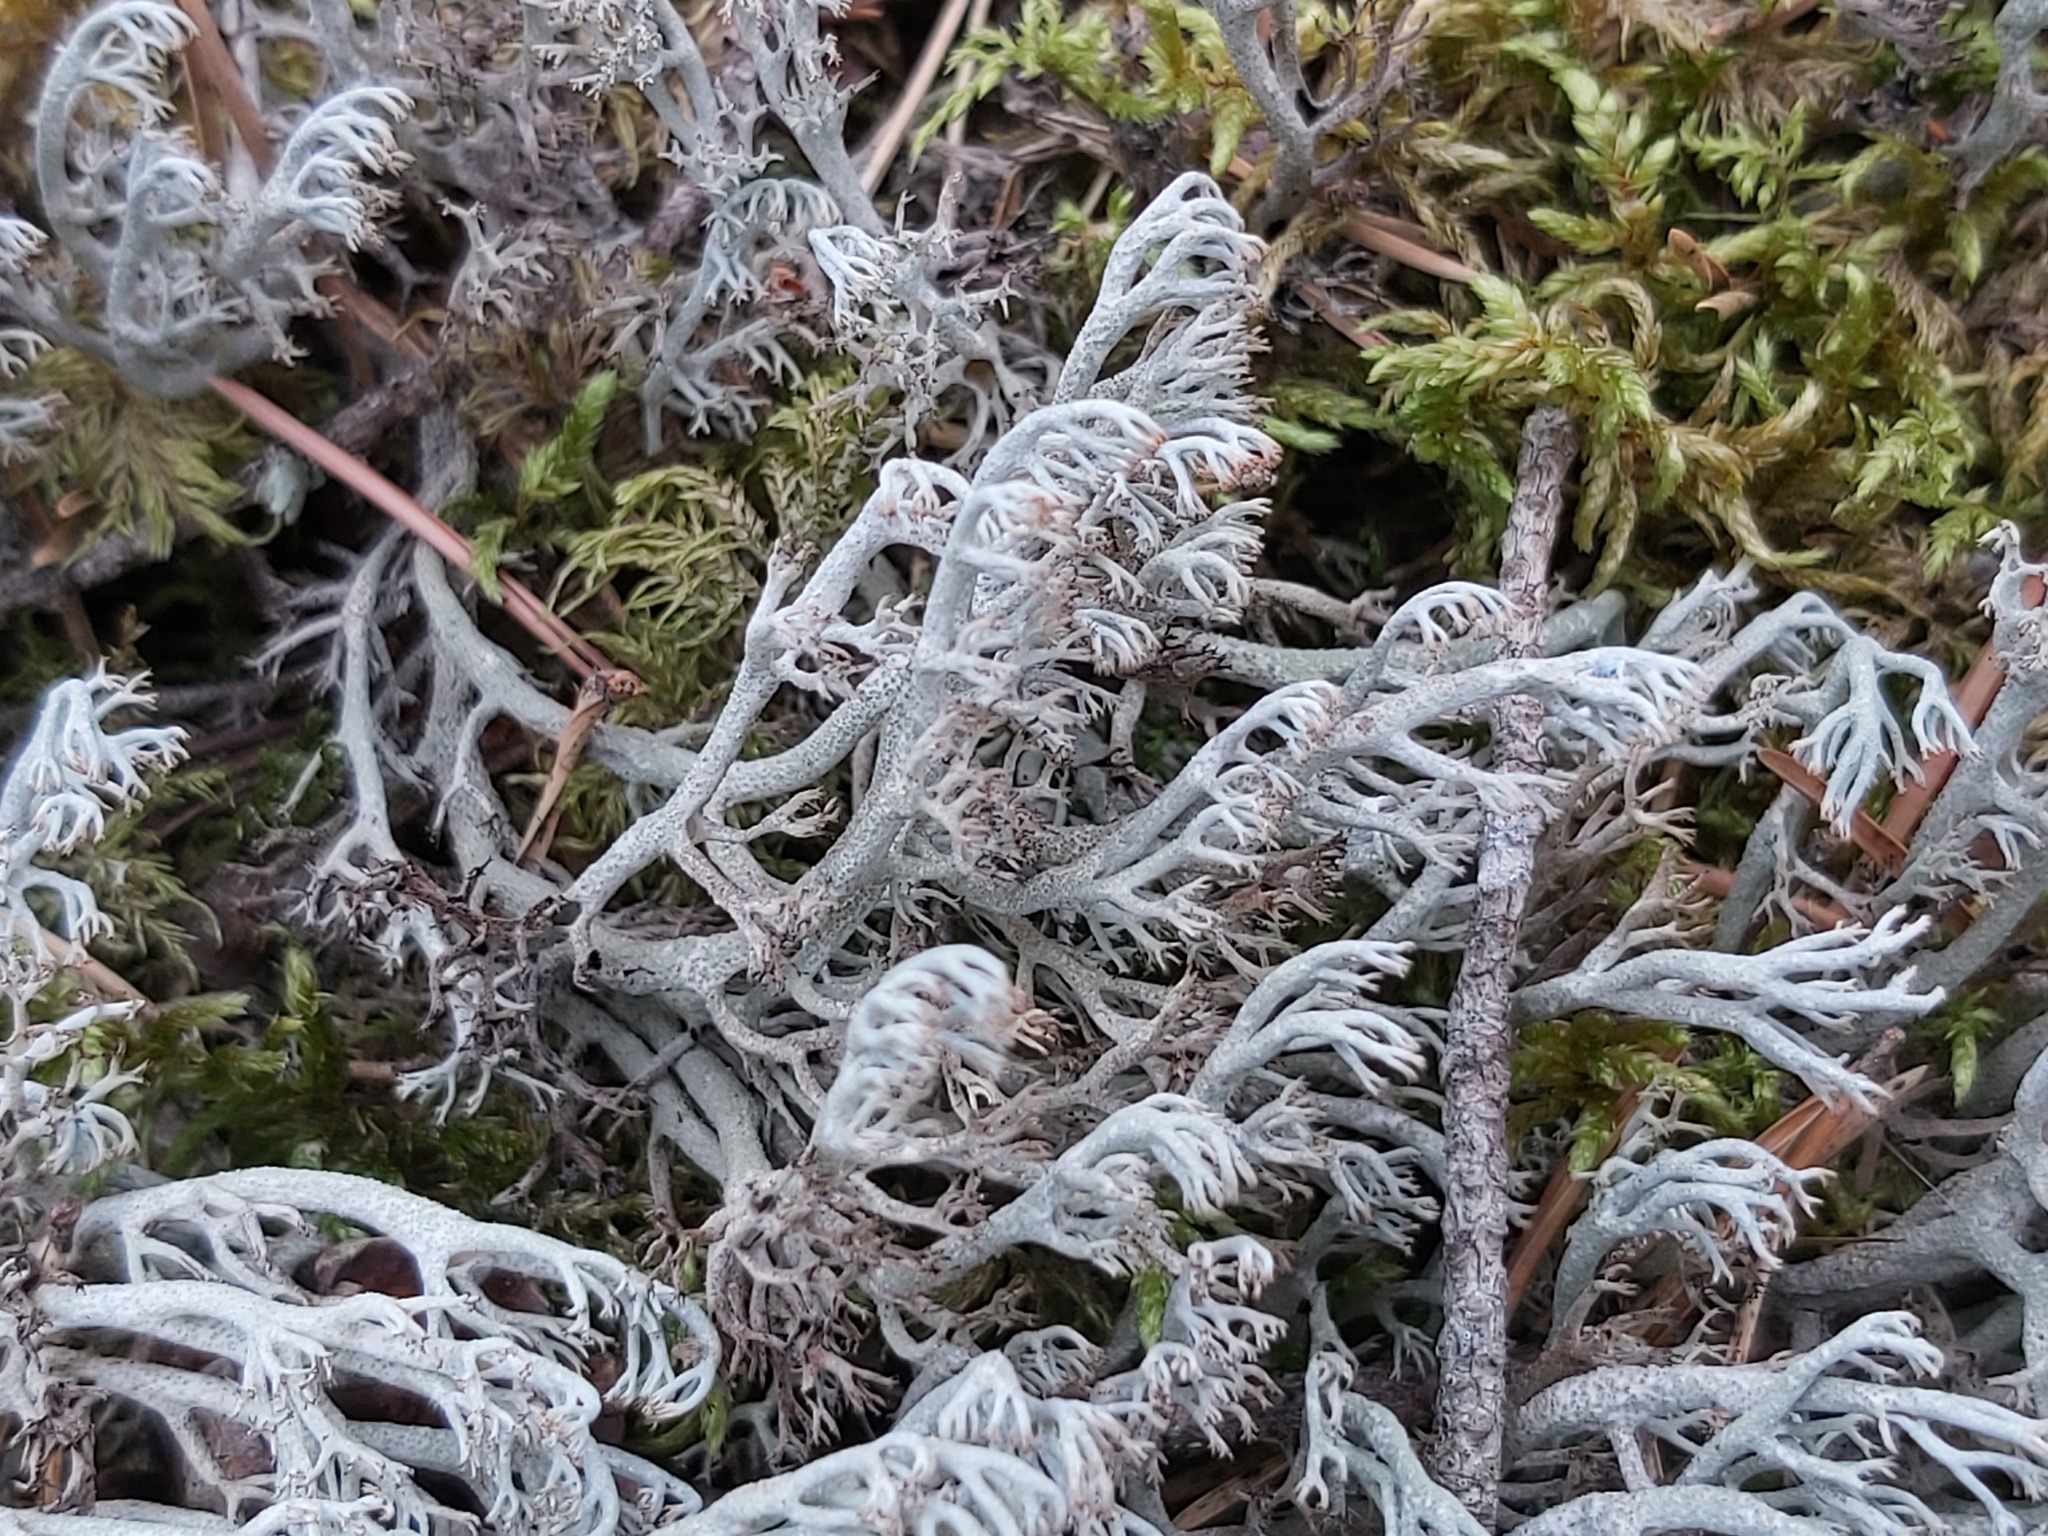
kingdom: Fungi
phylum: Ascomycota
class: Lecanoromycetes
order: Lecanorales
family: Cladoniaceae
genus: Cladonia
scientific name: Cladonia rangiferina
